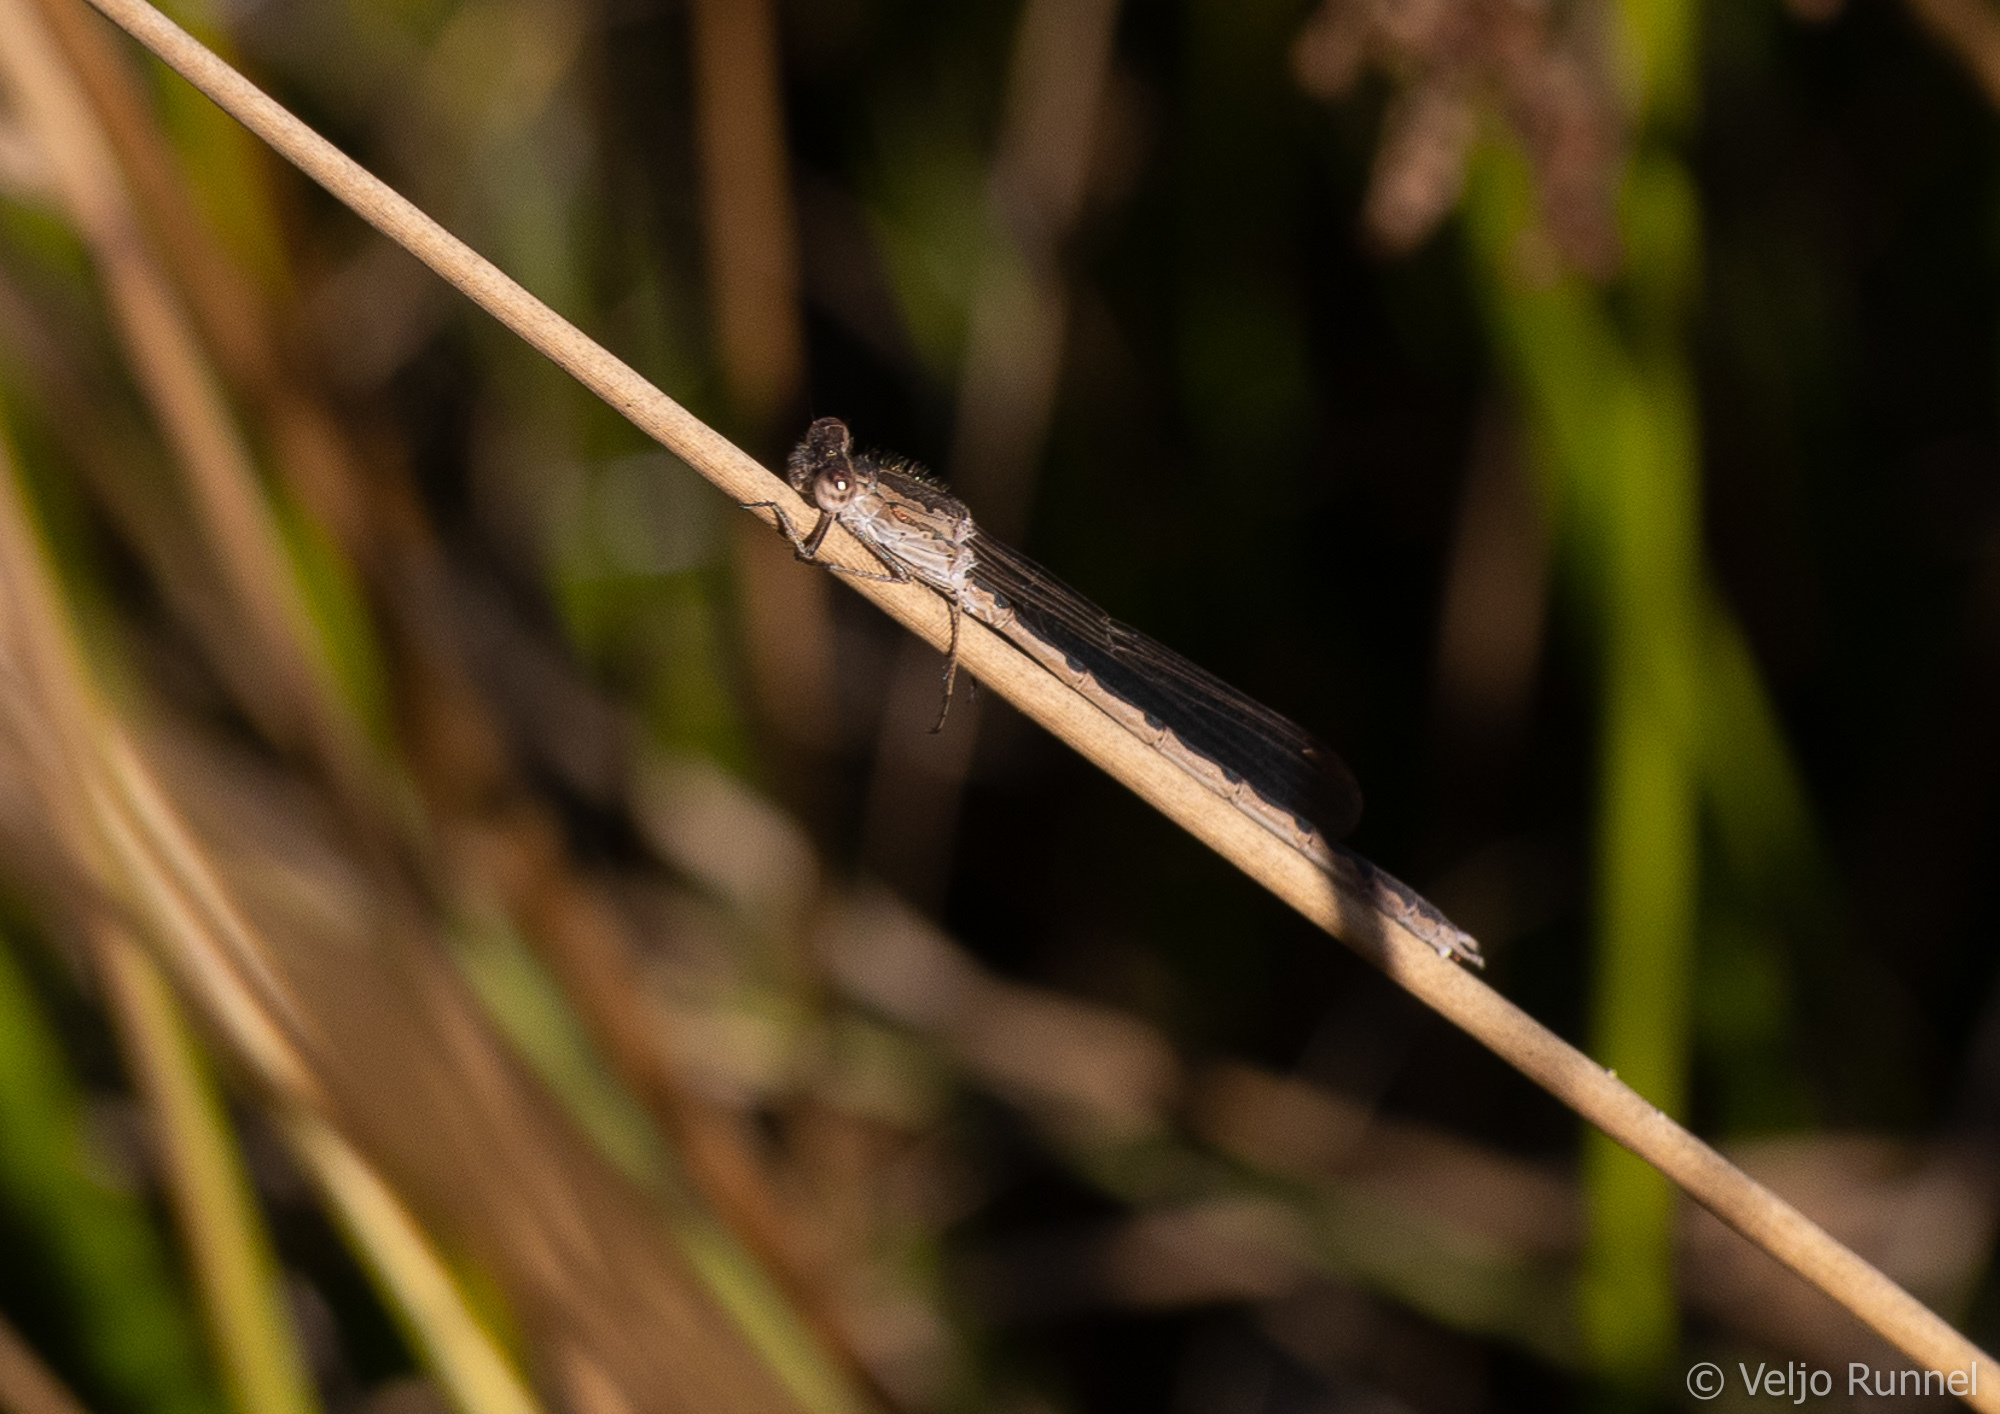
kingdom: Animalia
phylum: Arthropoda
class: Insecta
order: Odonata
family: Lestidae
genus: Sympecma
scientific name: Sympecma paedisca
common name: Siberian winter damsel
